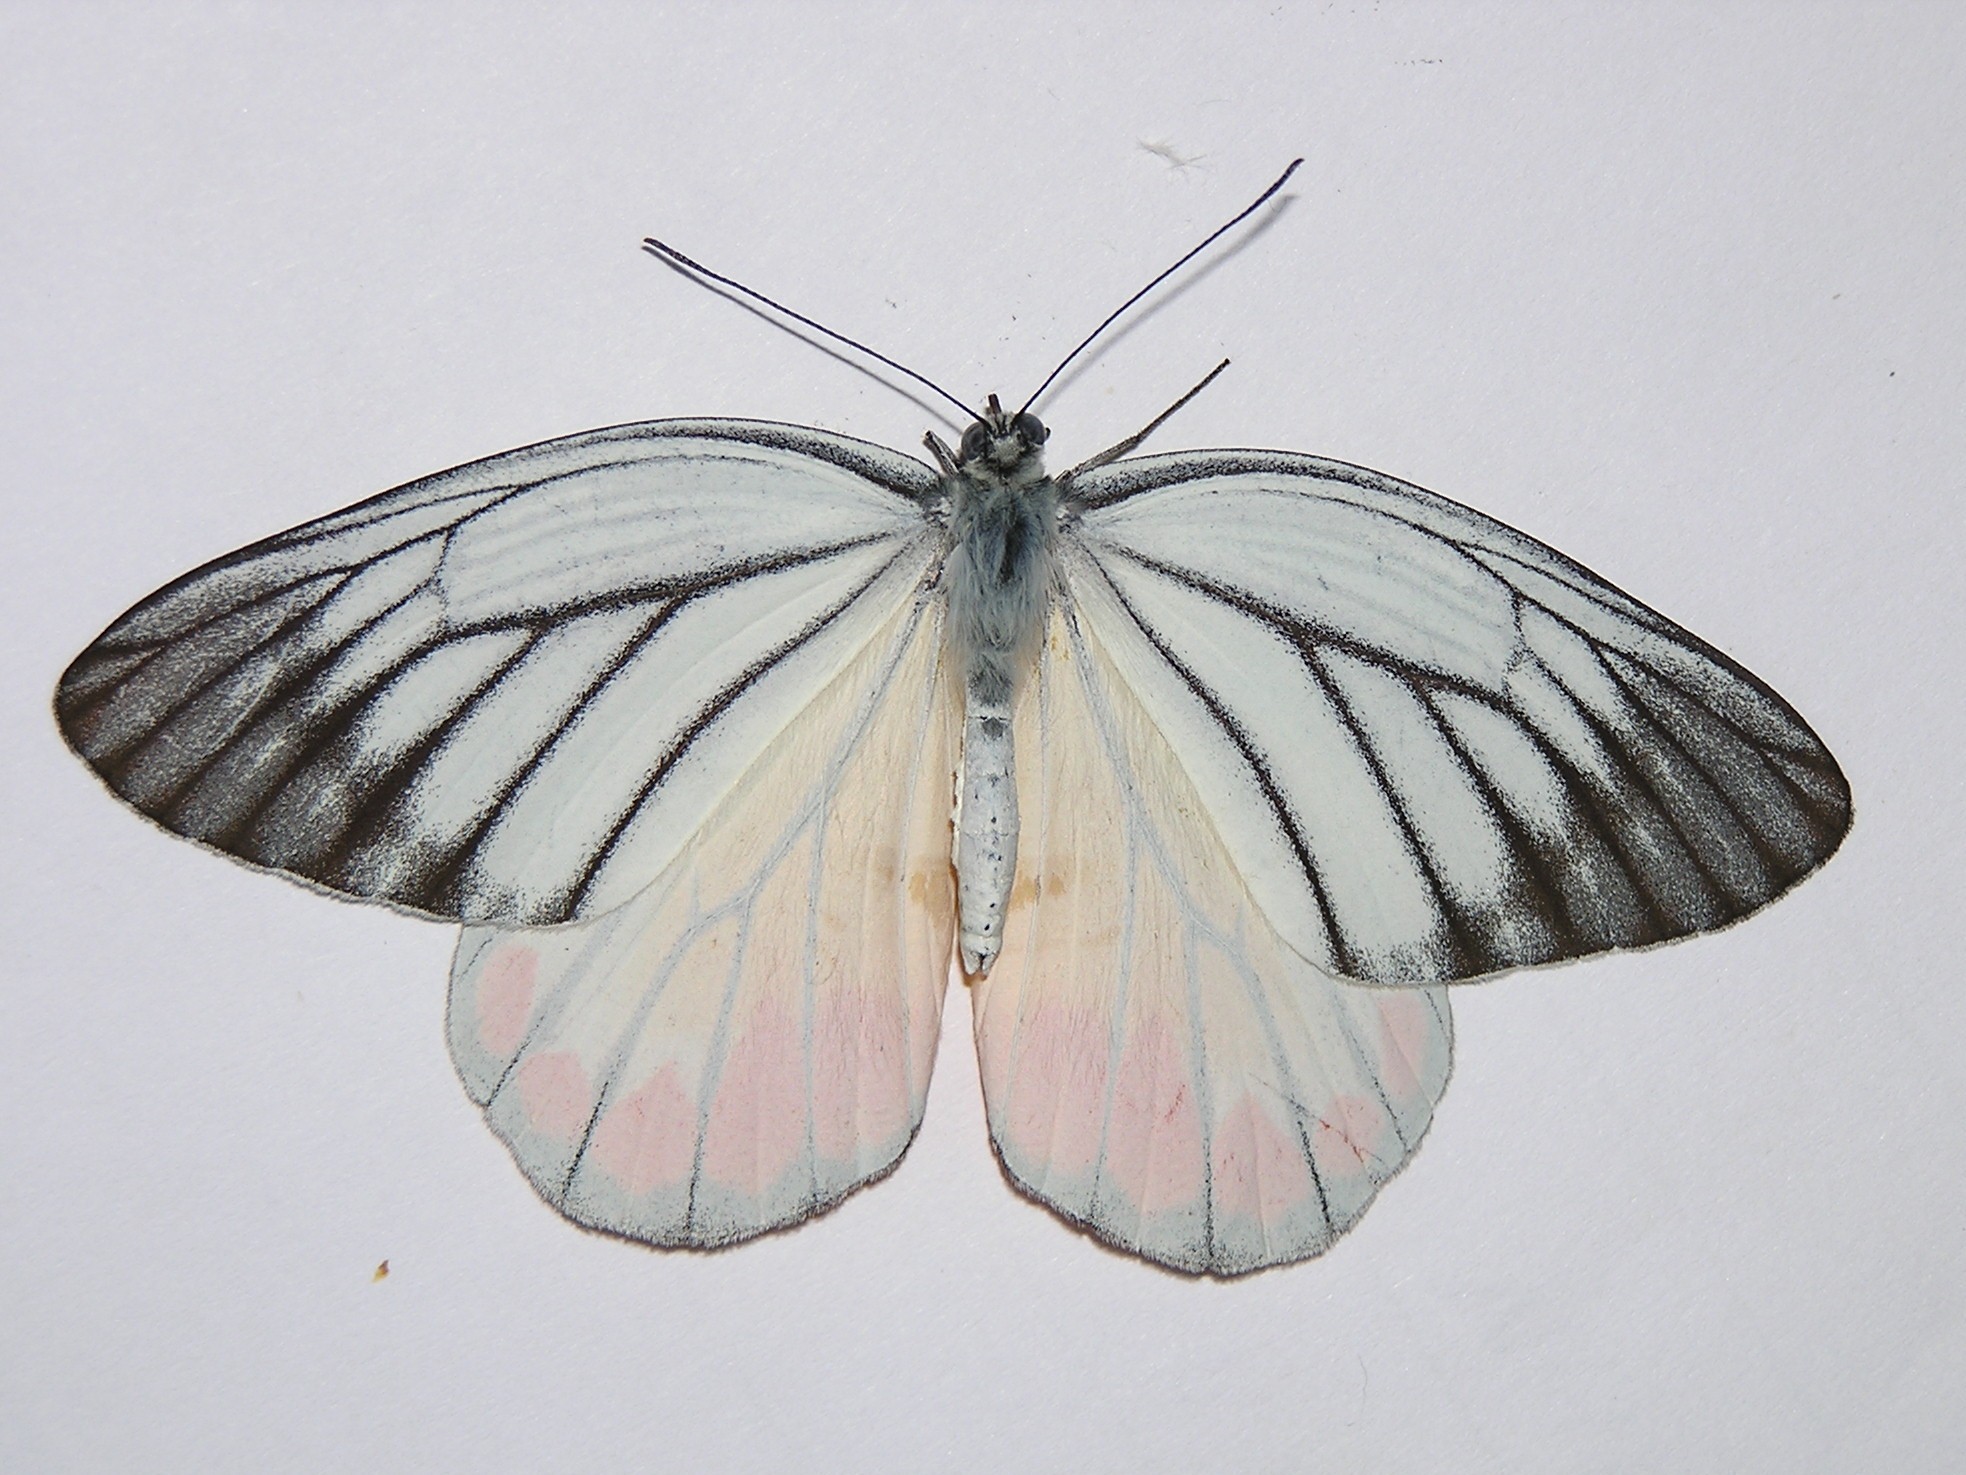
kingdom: Animalia
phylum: Arthropoda
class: Insecta
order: Lepidoptera
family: Pieridae
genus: Delias
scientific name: Delias hyparete
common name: Painted jezebel
